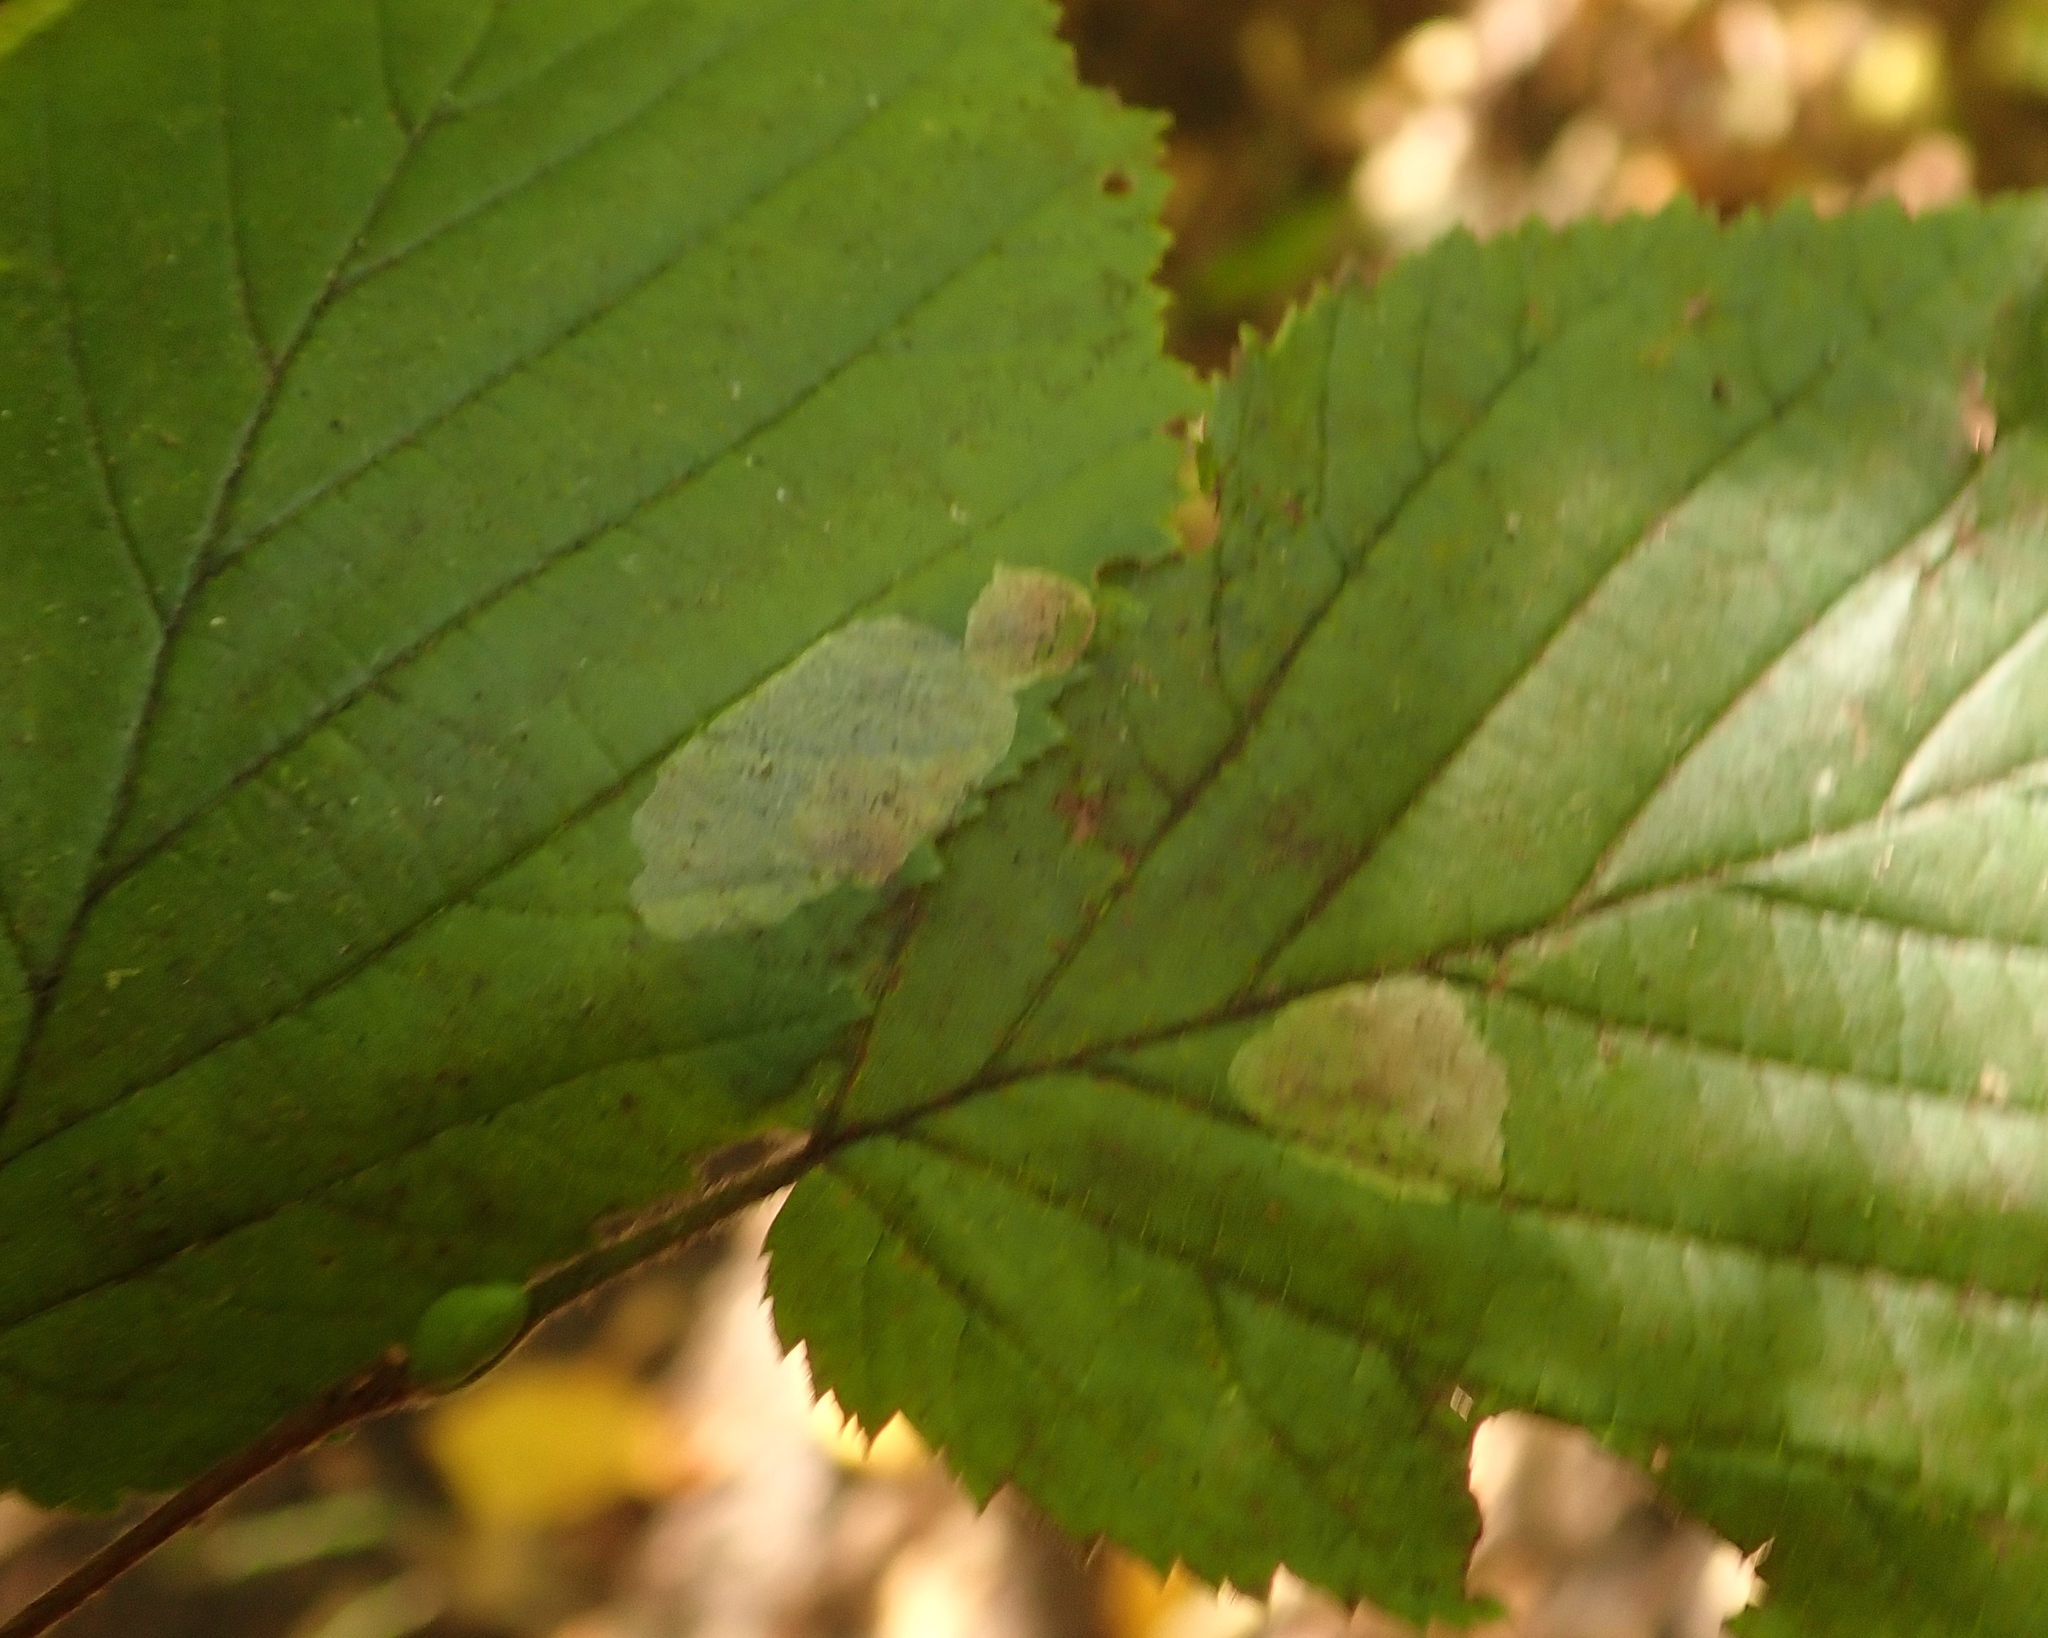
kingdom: Animalia
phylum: Arthropoda
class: Insecta
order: Lepidoptera
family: Gracillariidae
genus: Phyllonorycter
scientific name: Phyllonorycter coryli
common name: Nut-leaf blister moth
